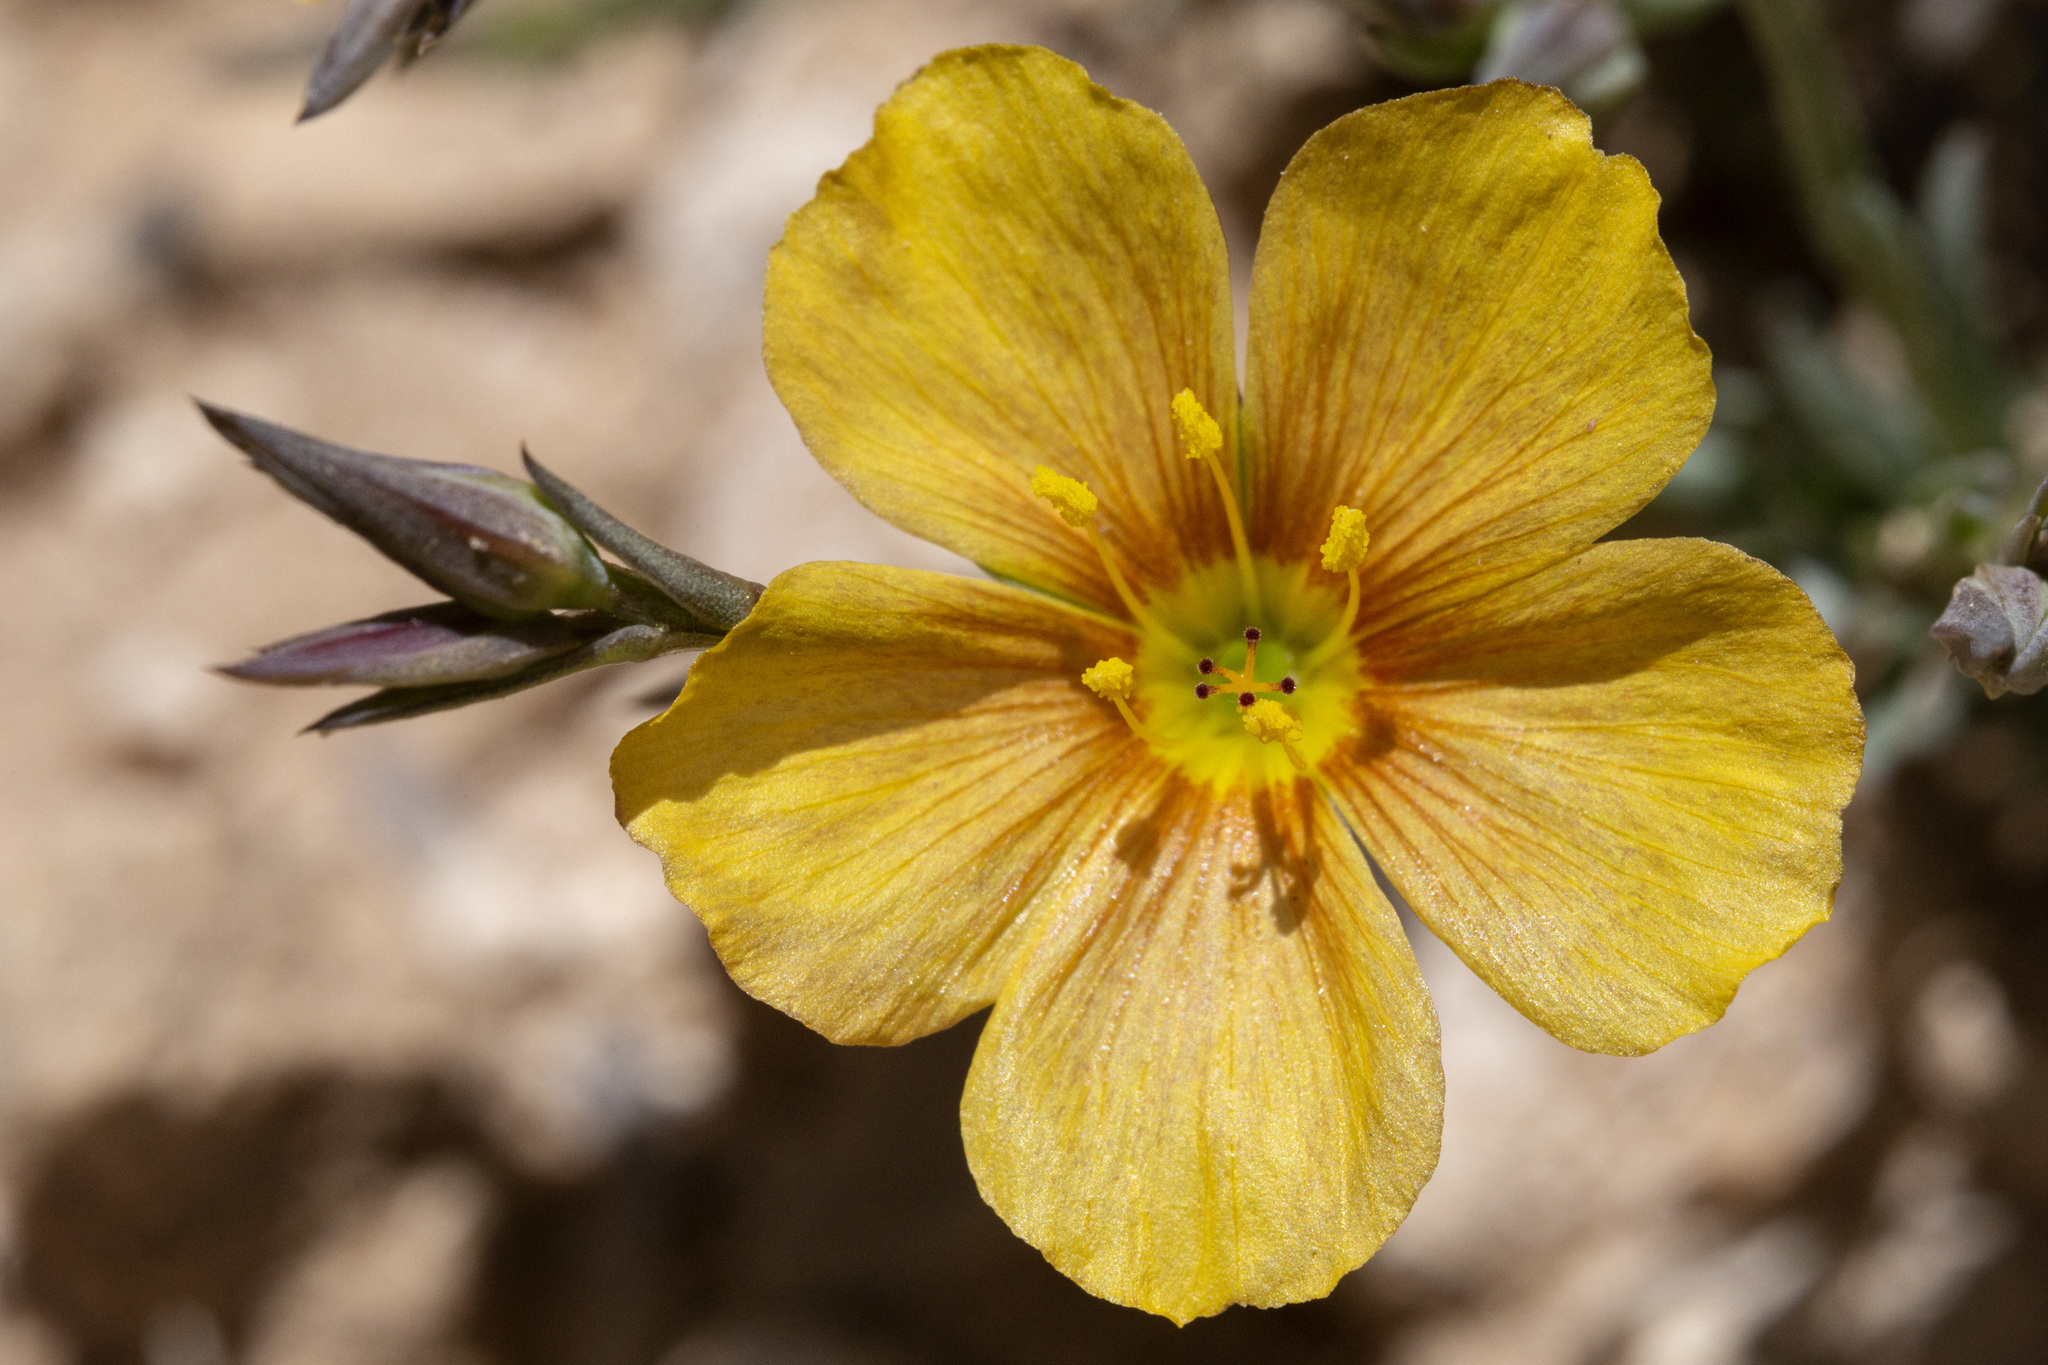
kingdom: Plantae
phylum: Tracheophyta
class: Magnoliopsida
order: Malpighiales
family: Linaceae
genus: Linum
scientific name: Linum rigidum
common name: Stiff-stem flax
